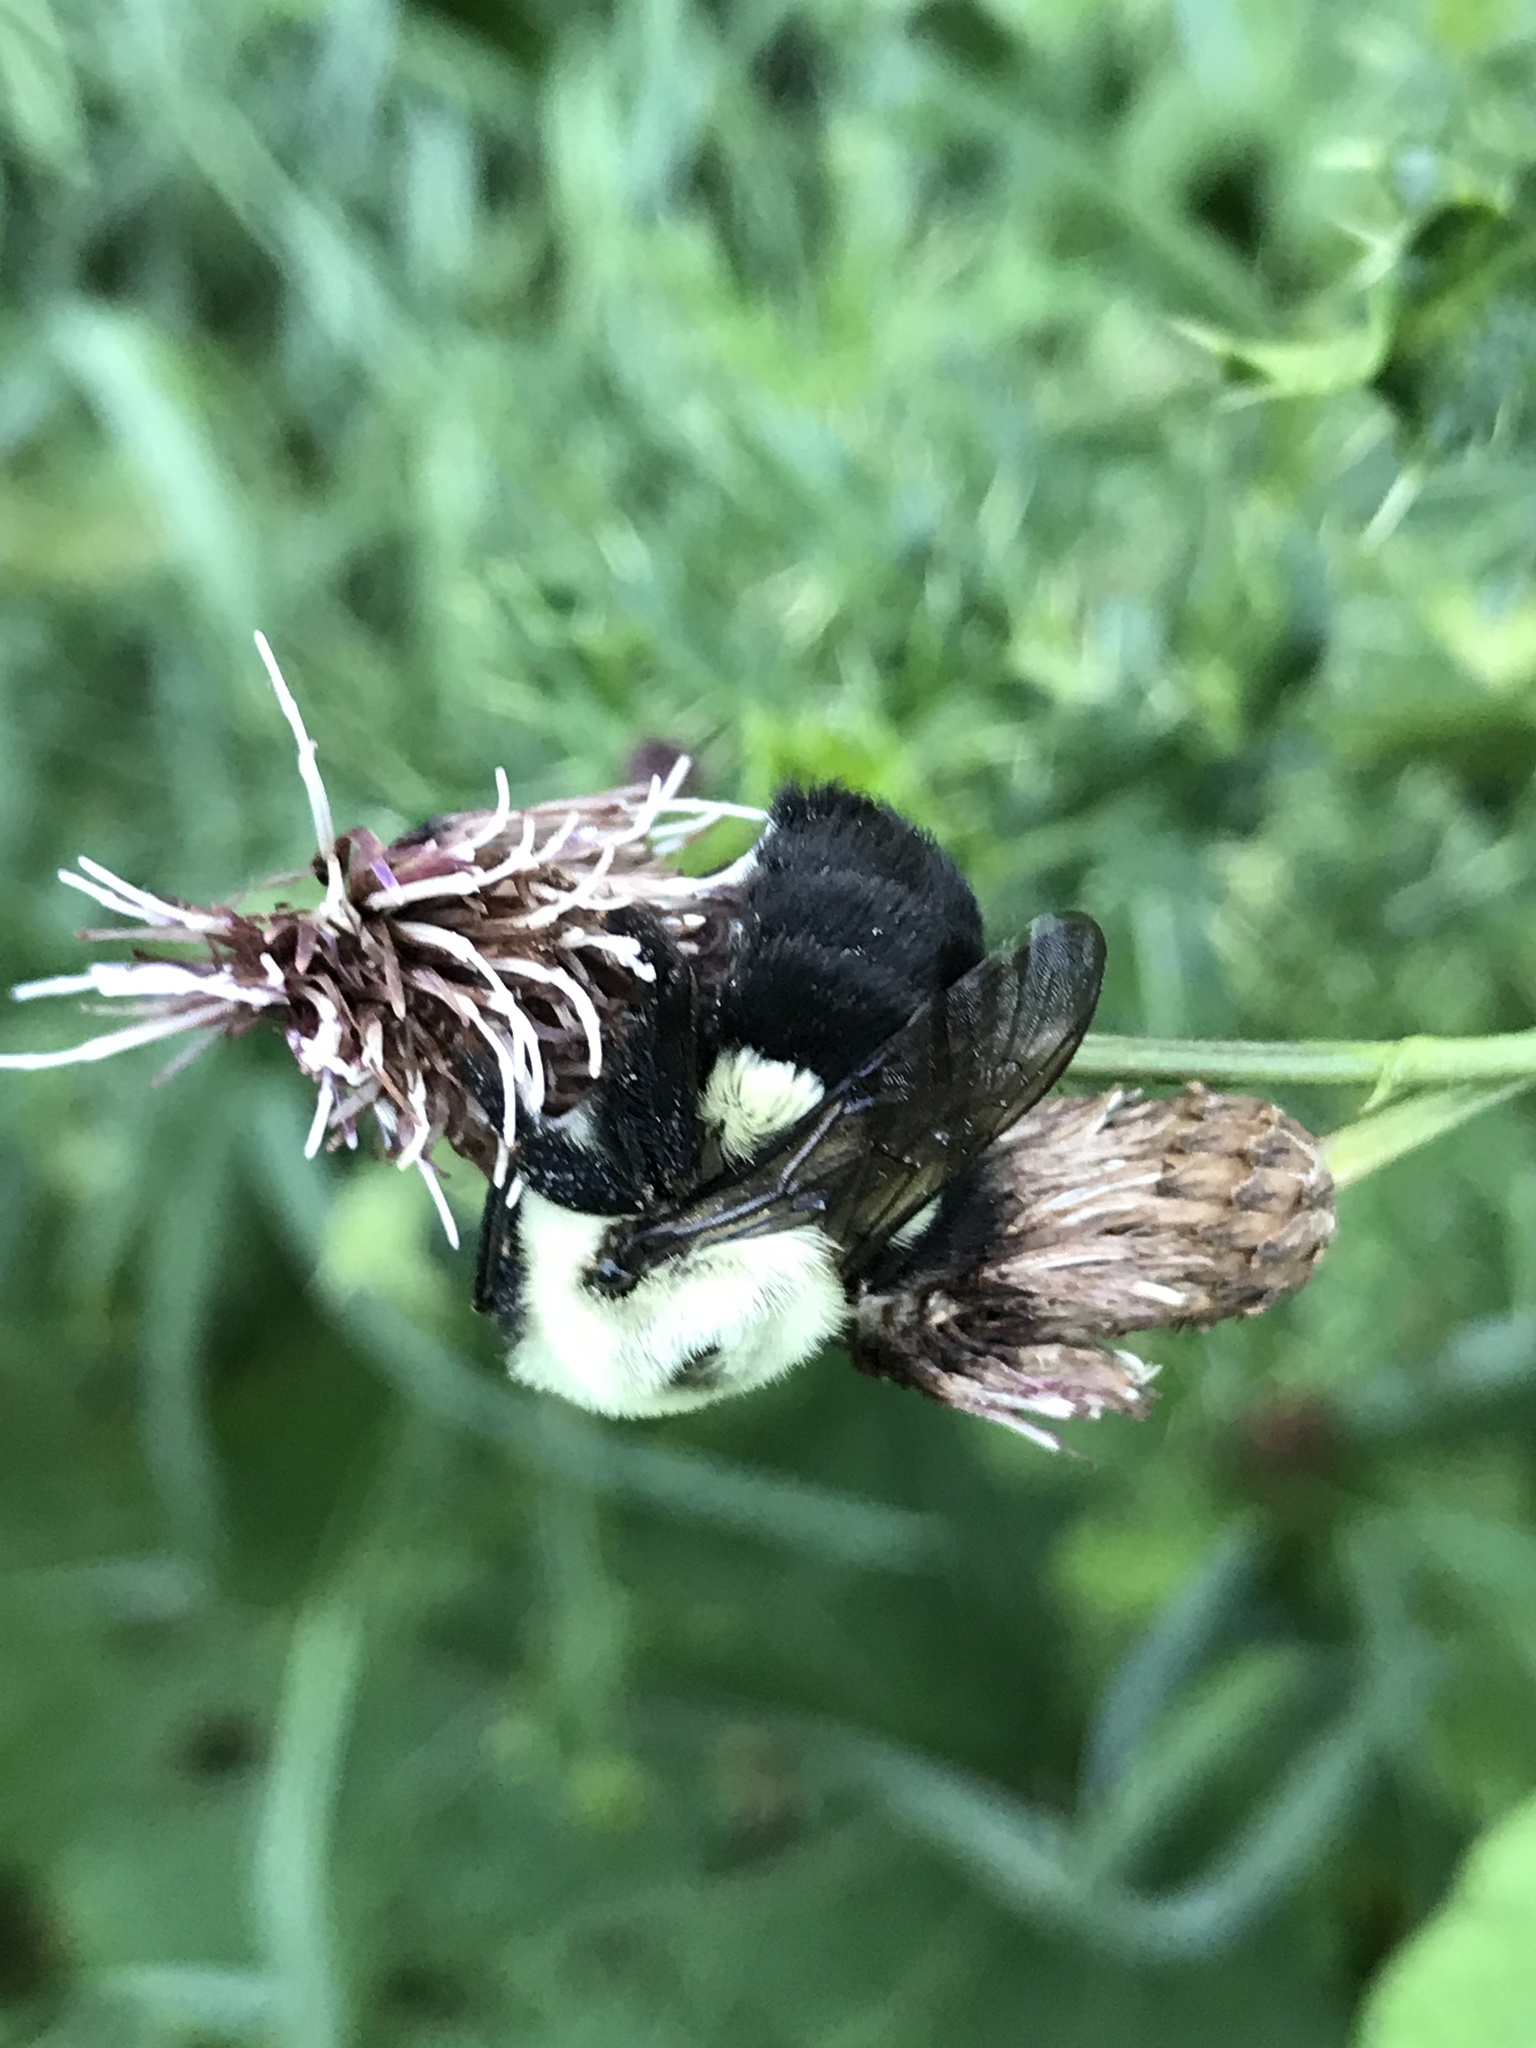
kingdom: Animalia
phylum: Arthropoda
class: Insecta
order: Hymenoptera
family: Apidae
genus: Bombus
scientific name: Bombus impatiens
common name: Common eastern bumble bee
